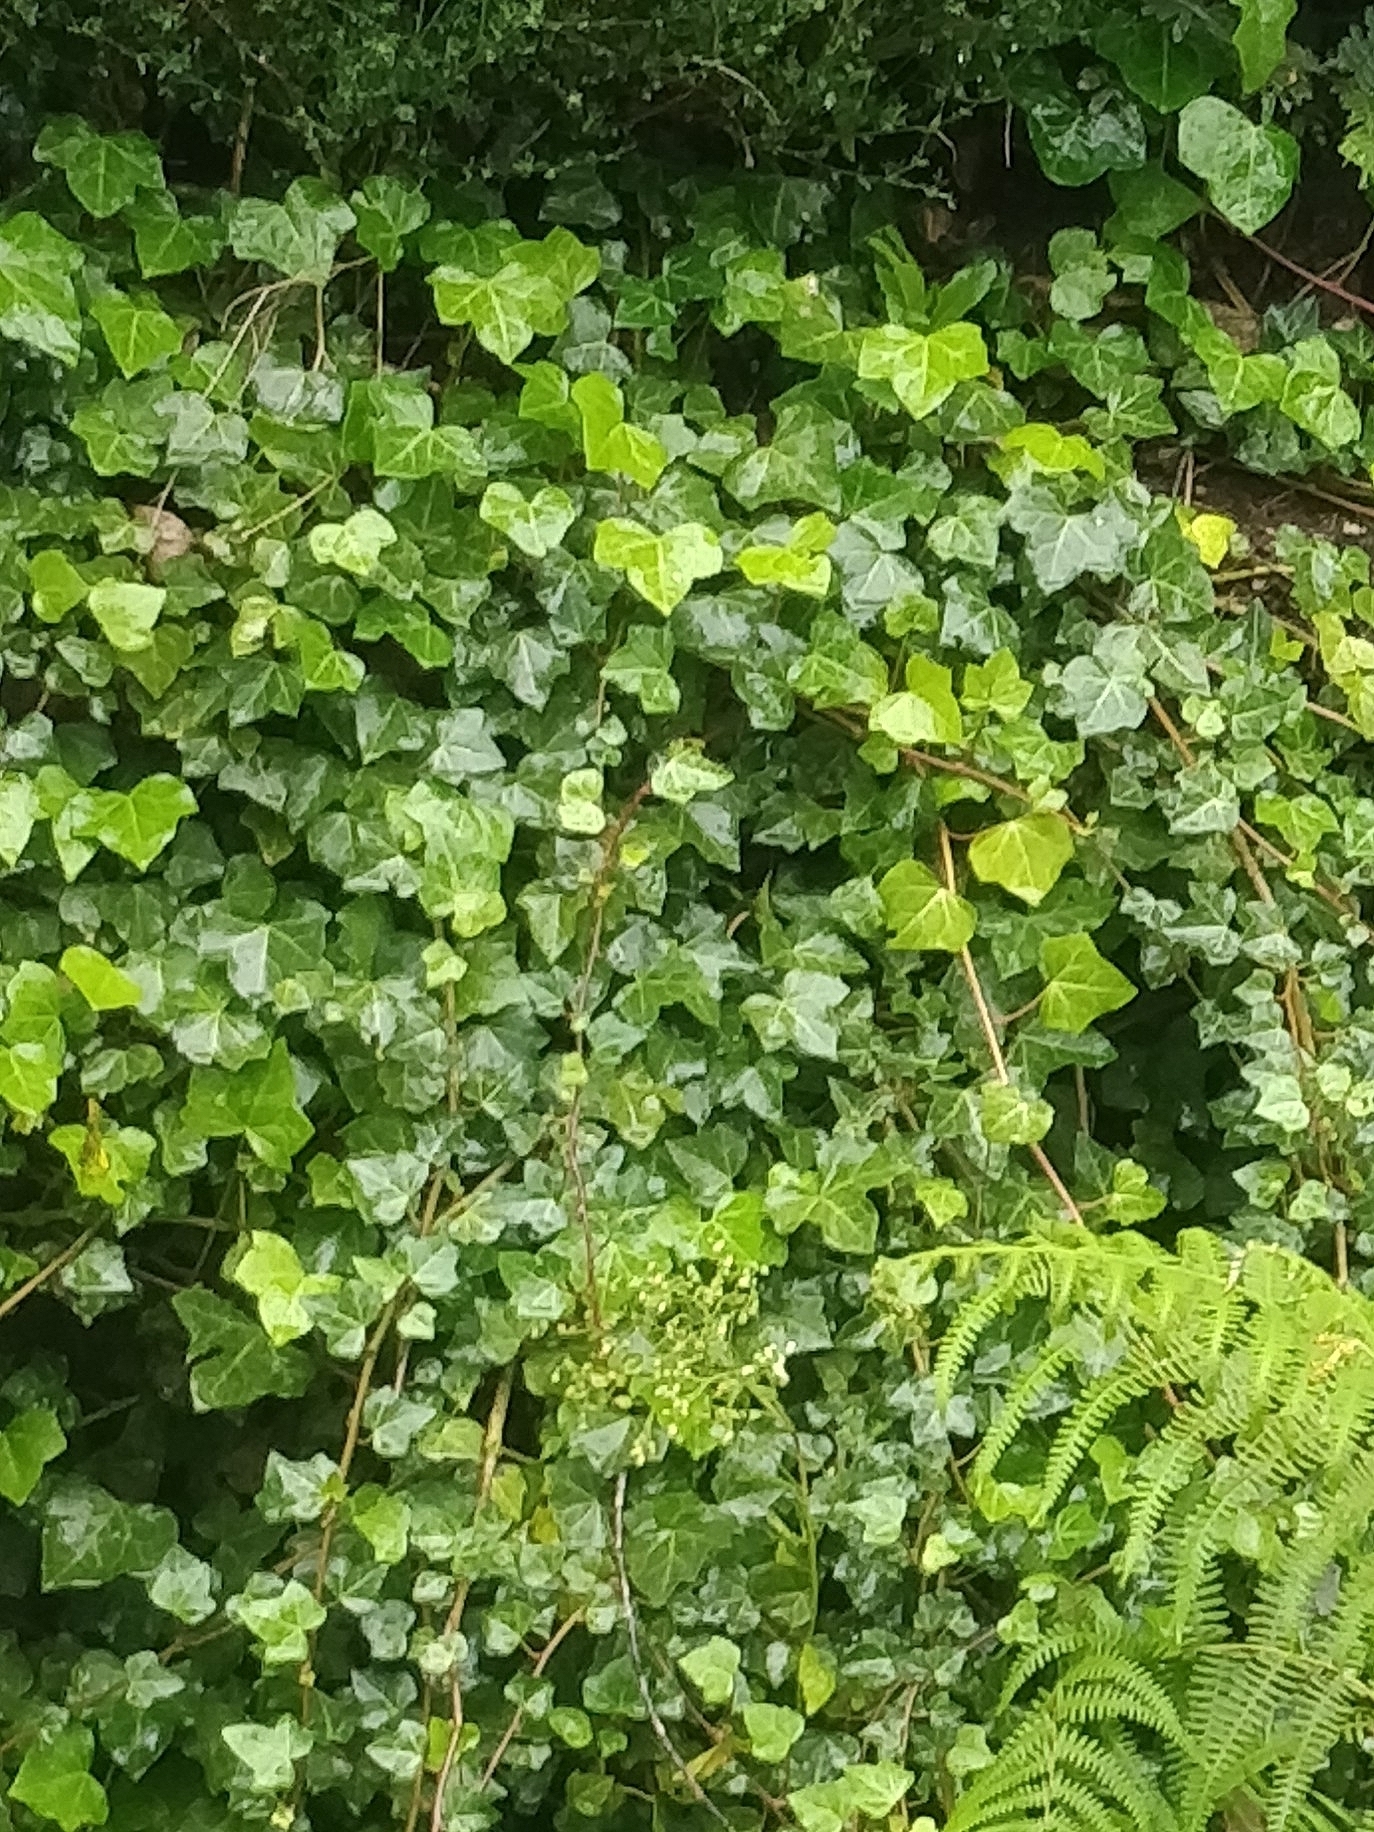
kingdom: Plantae
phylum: Tracheophyta
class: Magnoliopsida
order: Apiales
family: Araliaceae
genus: Hedera
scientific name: Hedera maderensis
